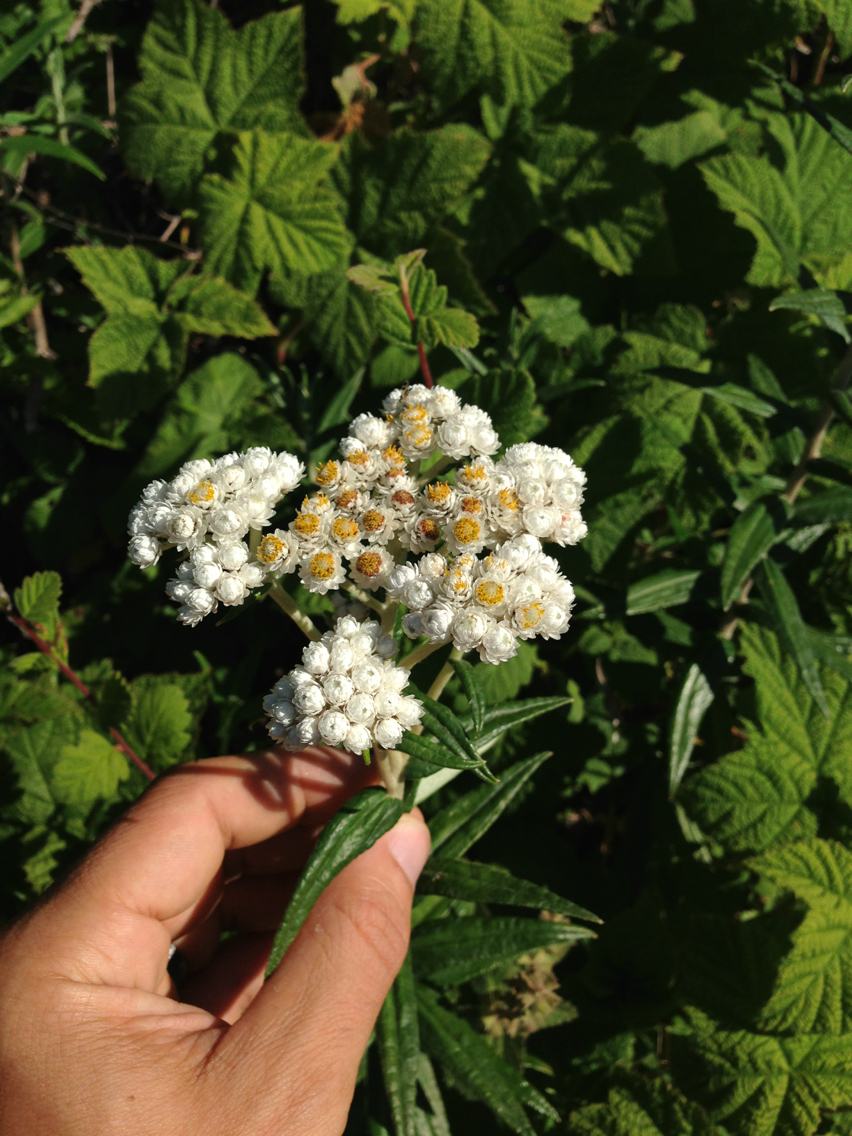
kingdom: Plantae
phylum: Tracheophyta
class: Magnoliopsida
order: Asterales
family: Asteraceae
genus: Anaphalis
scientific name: Anaphalis margaritacea
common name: Pearly everlasting
